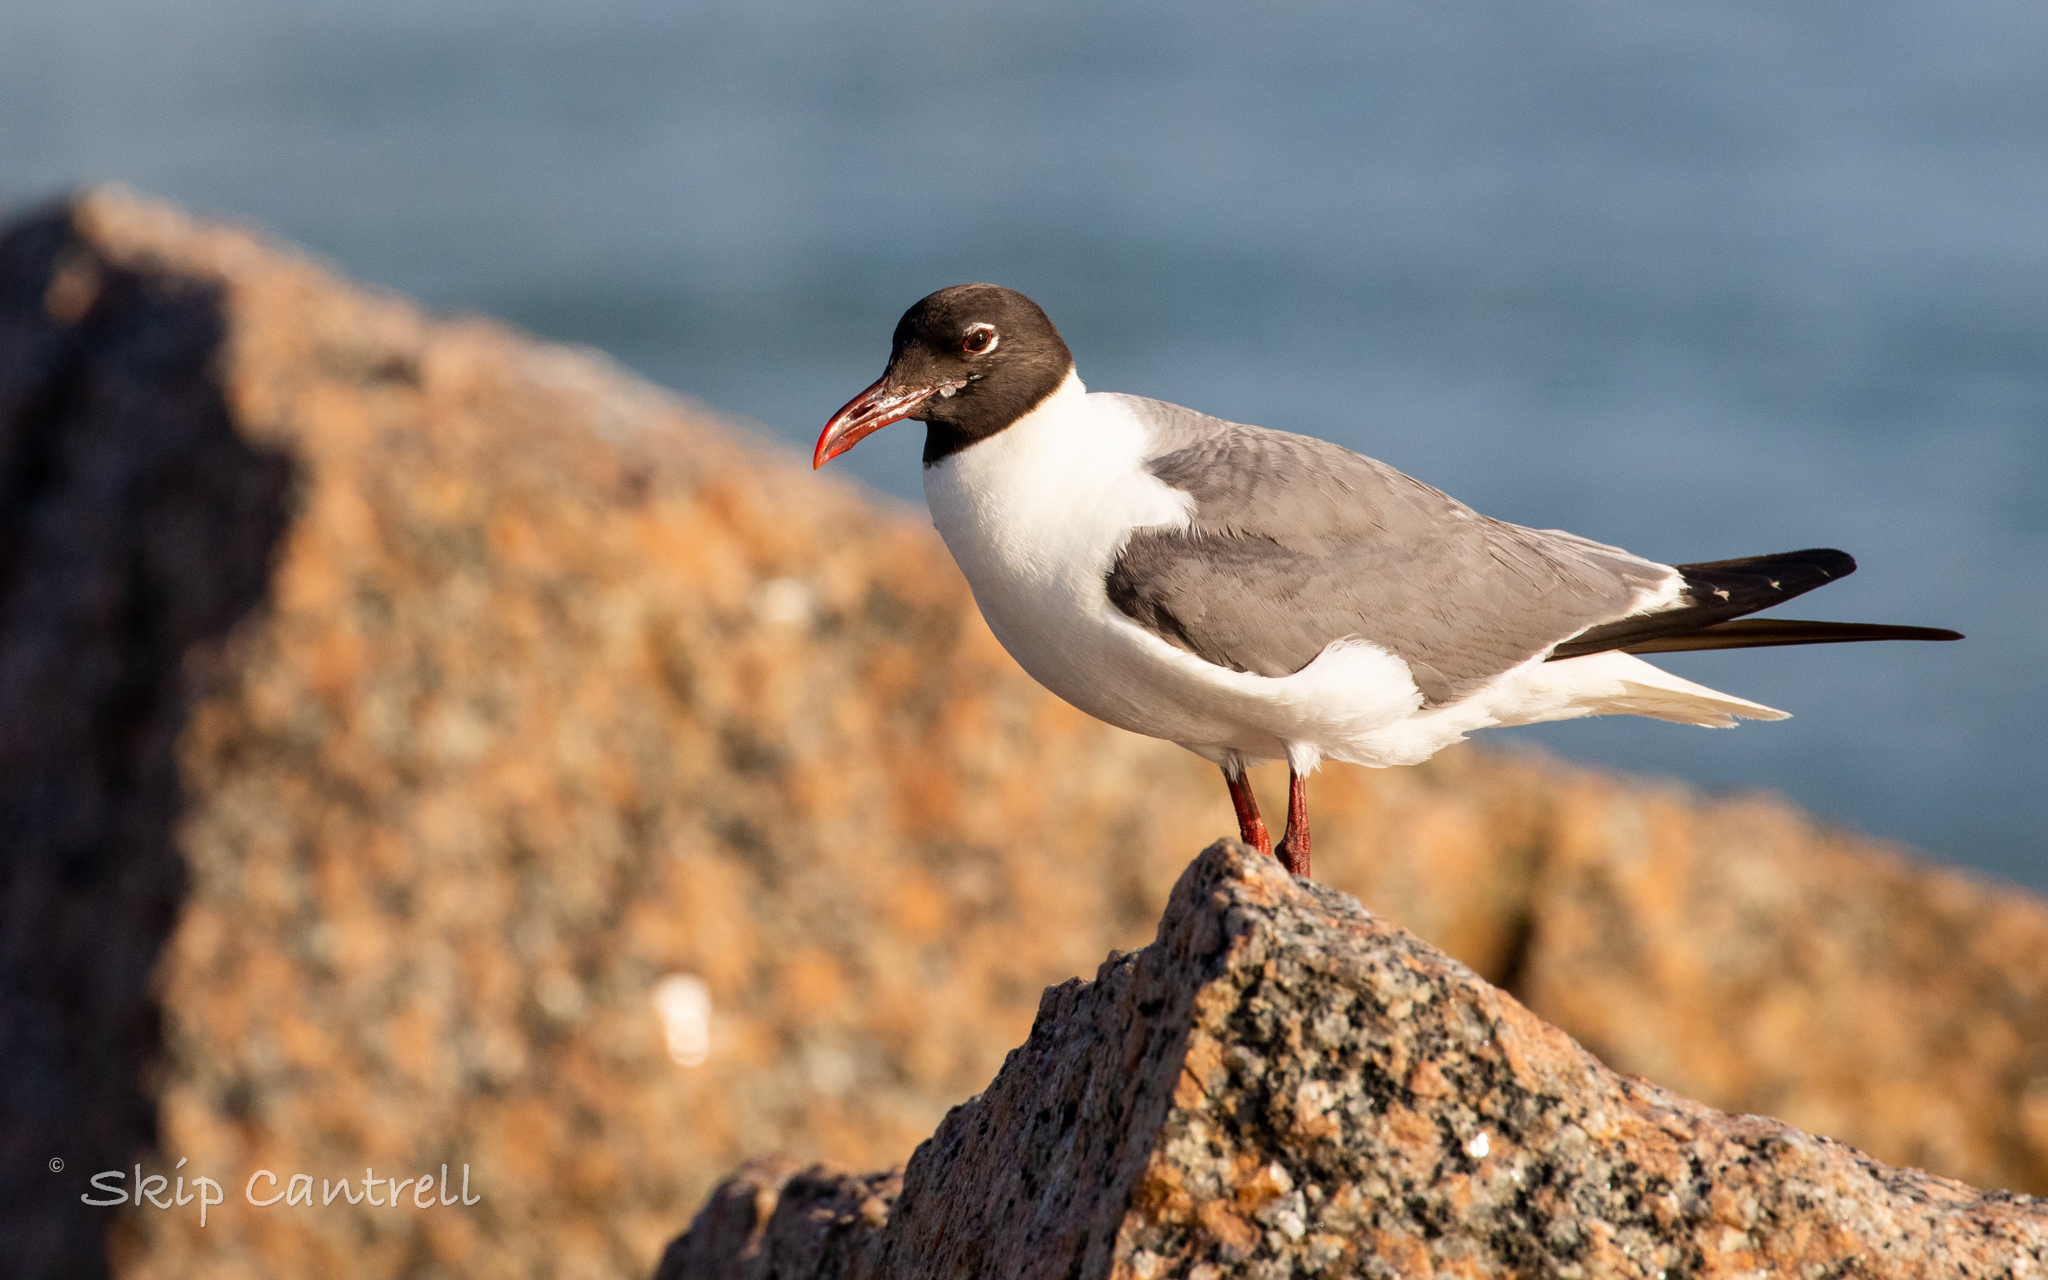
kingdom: Animalia
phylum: Chordata
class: Aves
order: Charadriiformes
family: Laridae
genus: Leucophaeus
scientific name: Leucophaeus atricilla
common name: Laughing gull
